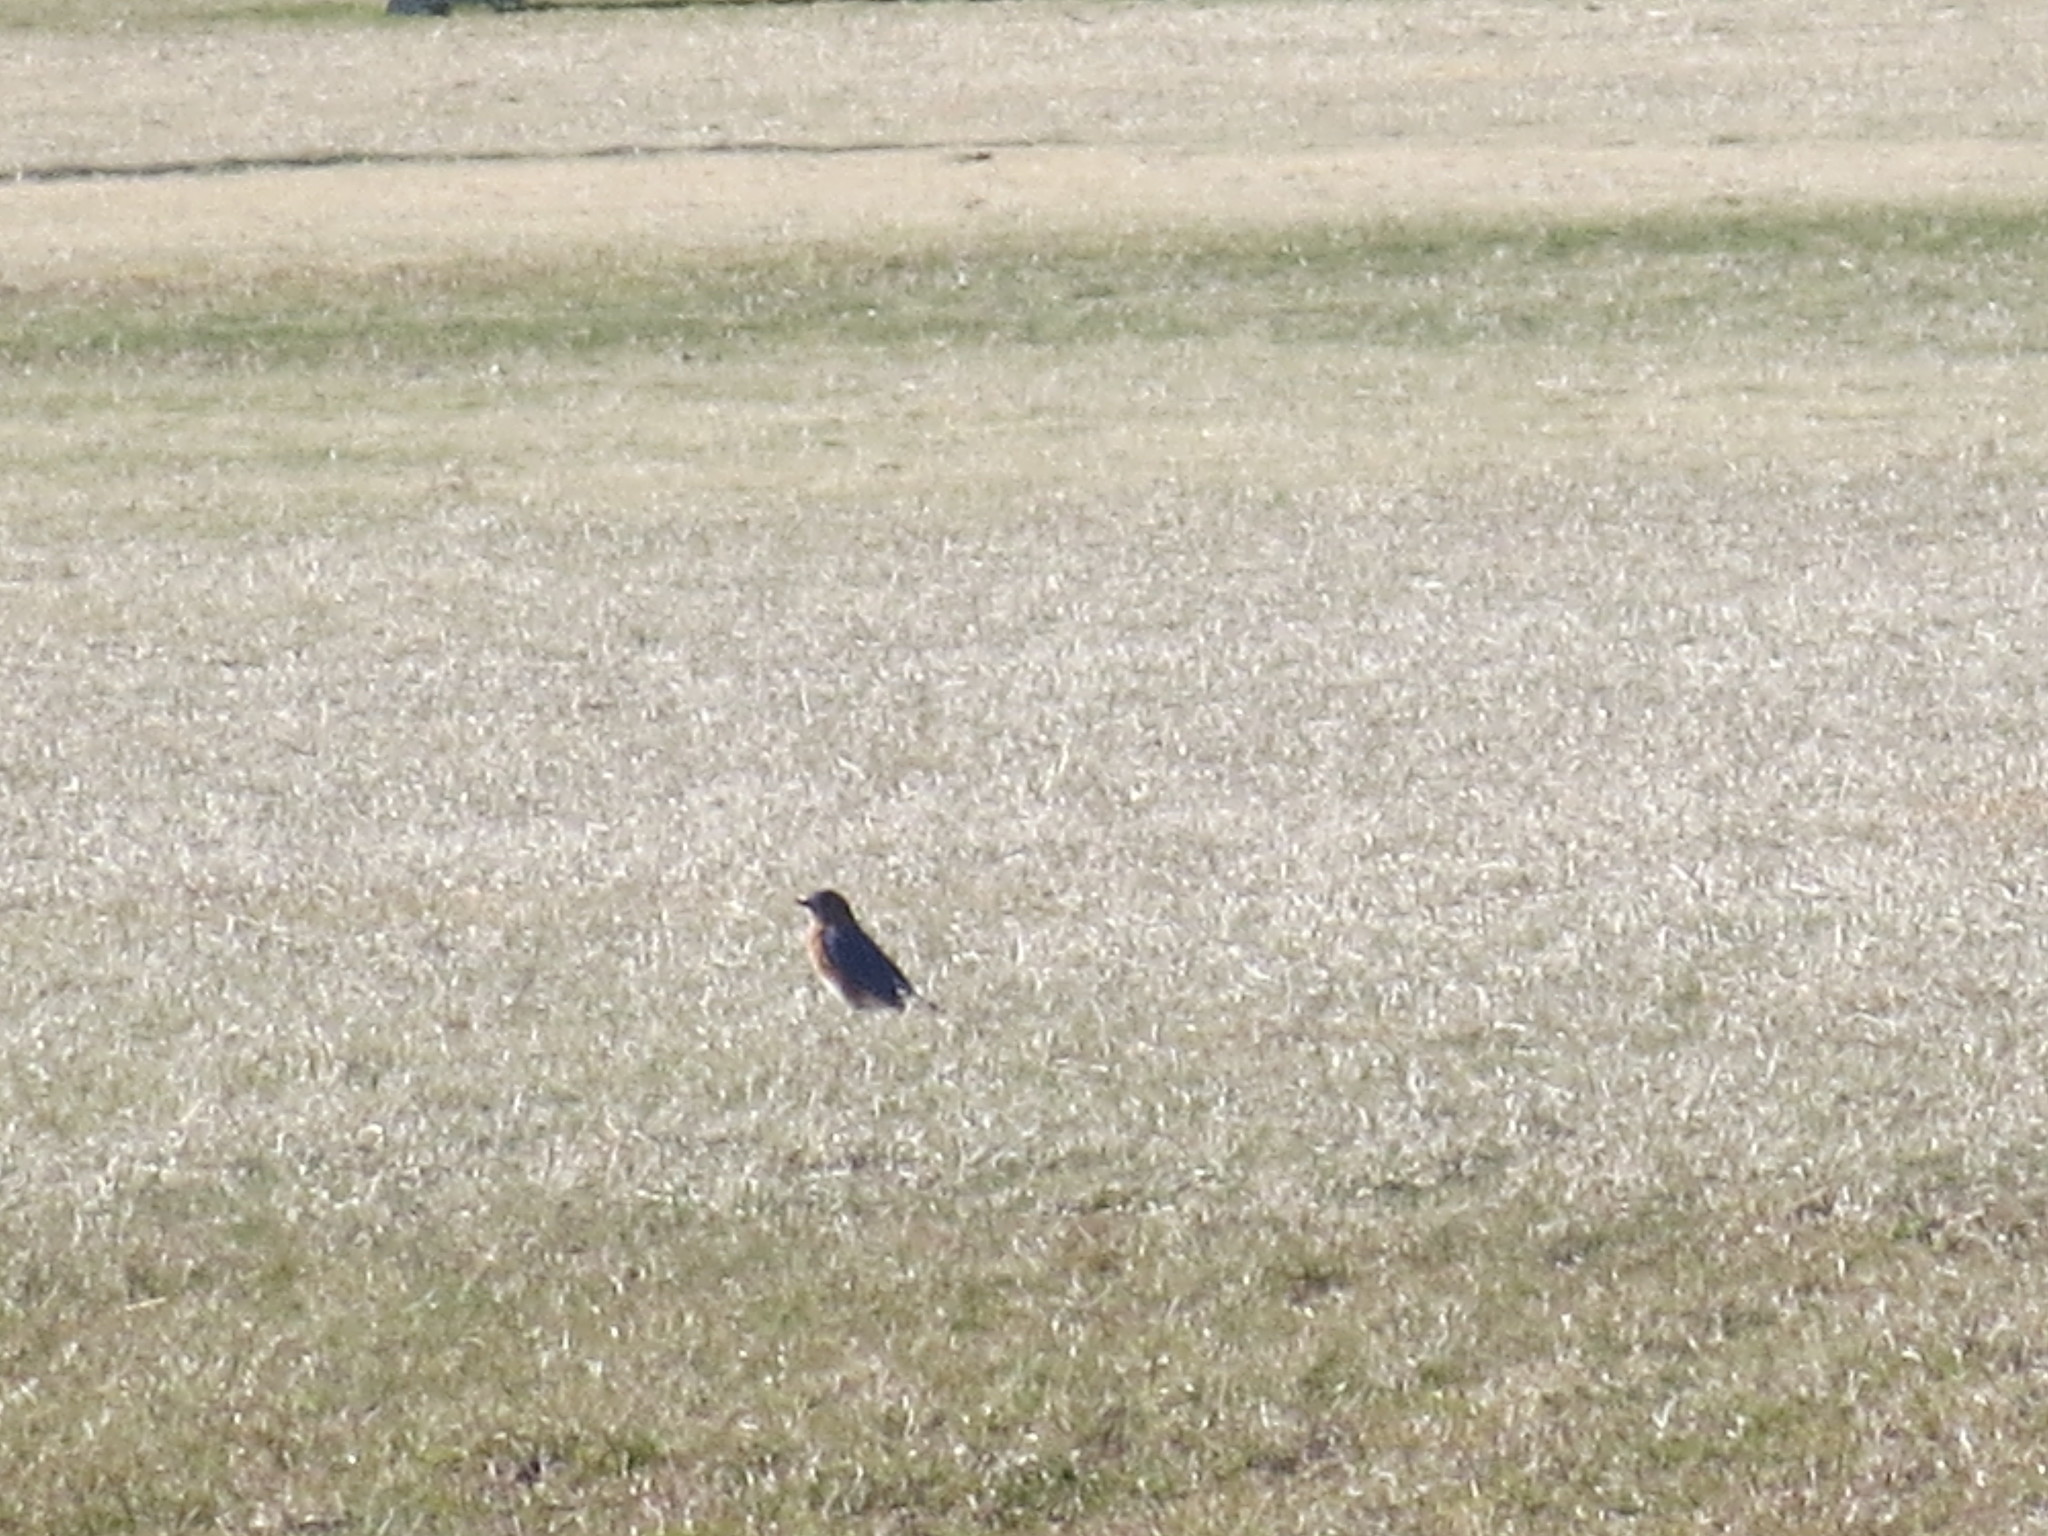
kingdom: Animalia
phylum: Chordata
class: Aves
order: Passeriformes
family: Turdidae
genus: Sialia
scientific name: Sialia sialis
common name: Eastern bluebird
